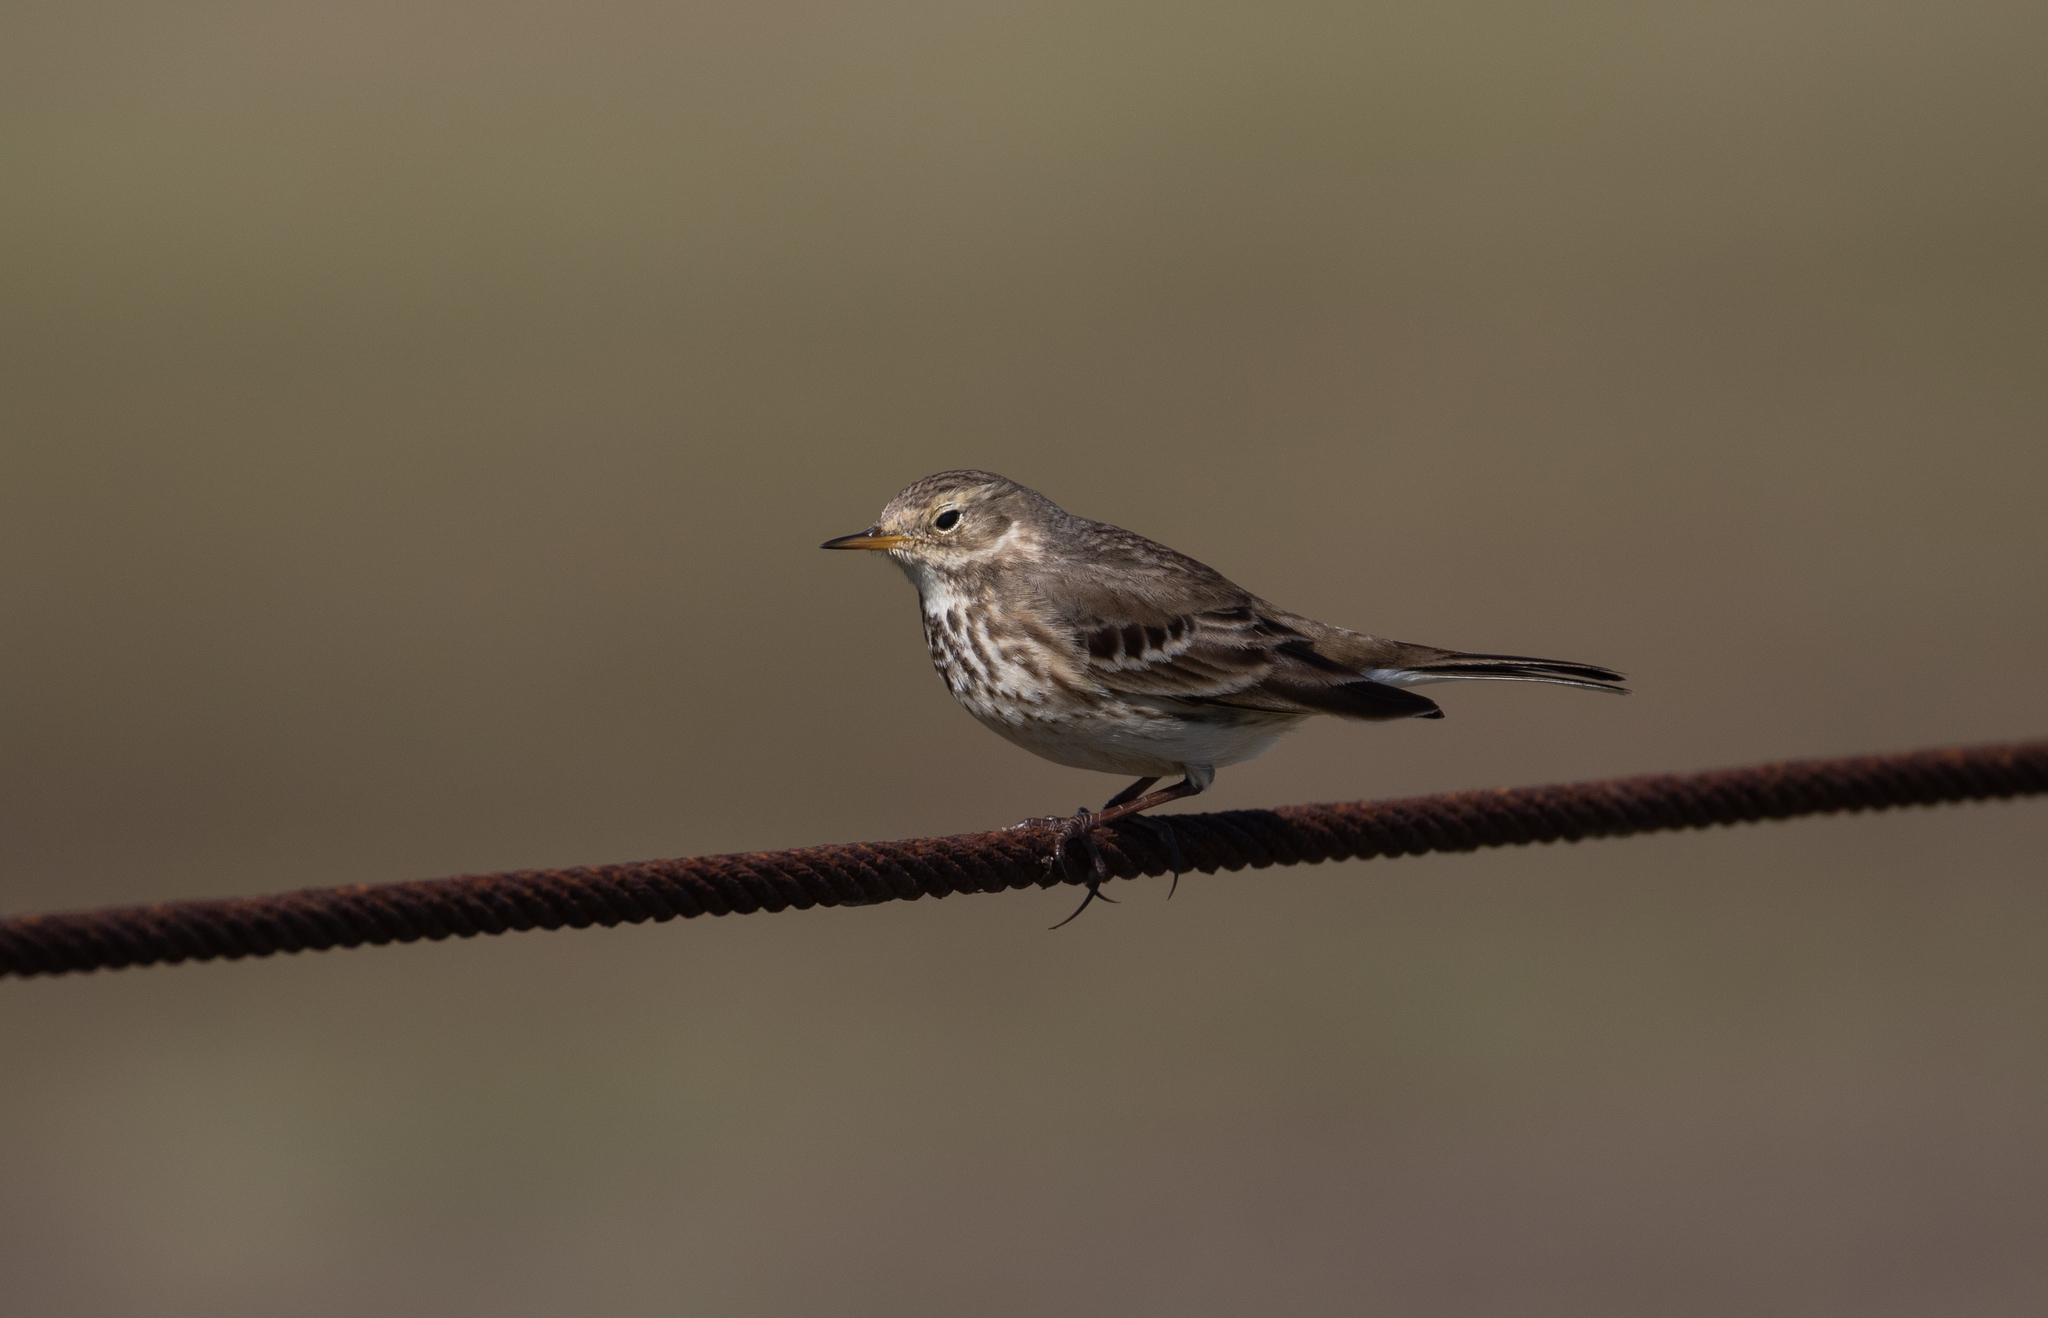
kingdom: Animalia
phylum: Chordata
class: Aves
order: Passeriformes
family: Motacillidae
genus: Anthus
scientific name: Anthus rubescens
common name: Buff-bellied pipit
